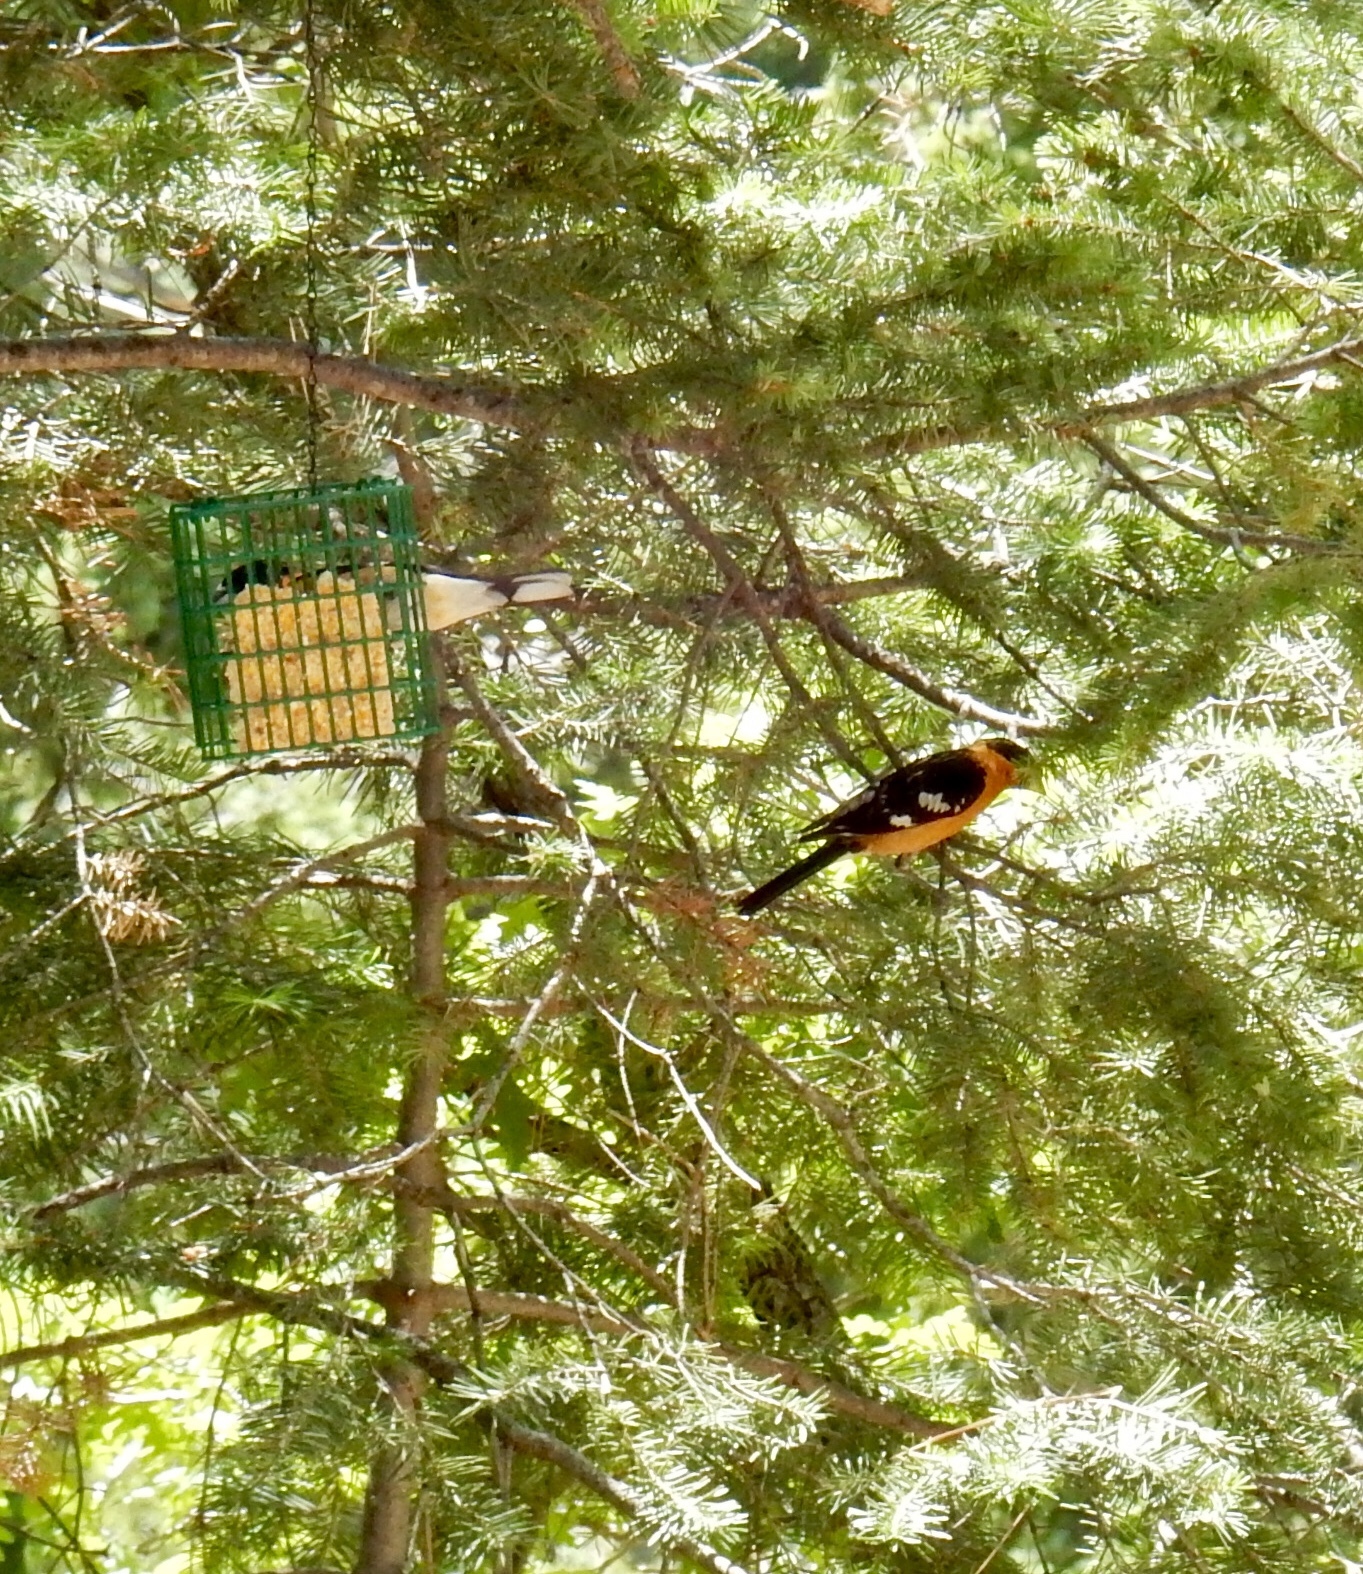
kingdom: Animalia
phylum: Chordata
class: Aves
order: Passeriformes
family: Cardinalidae
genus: Pheucticus
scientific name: Pheucticus melanocephalus
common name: Black-headed grosbeak
